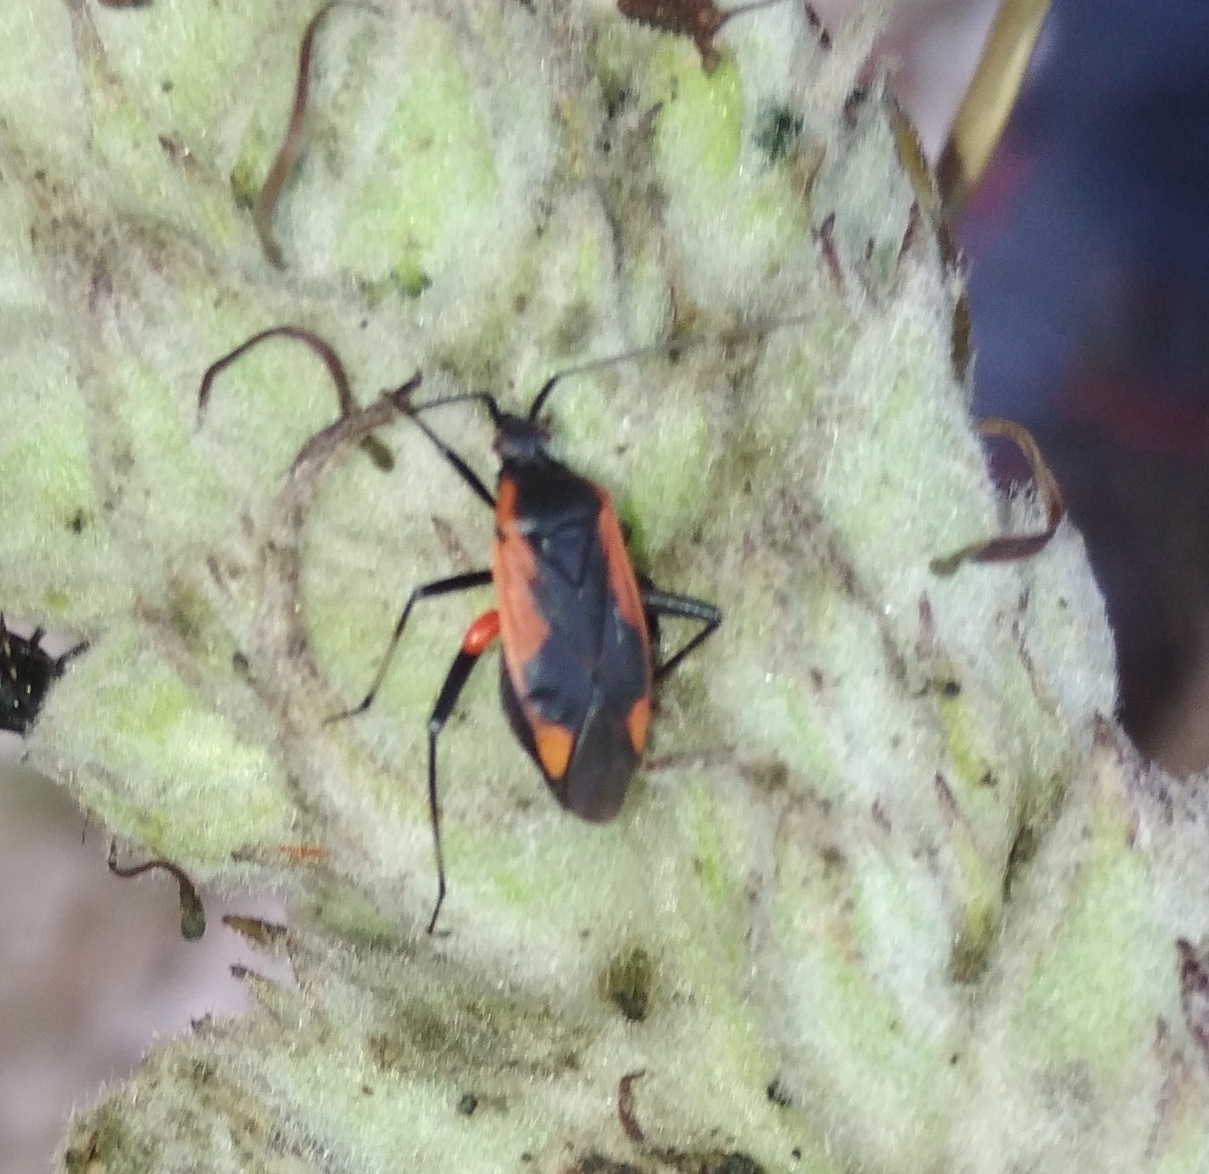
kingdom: Animalia
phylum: Arthropoda
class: Insecta
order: Hemiptera
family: Miridae
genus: Calocoris
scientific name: Calocoris nemoralis
